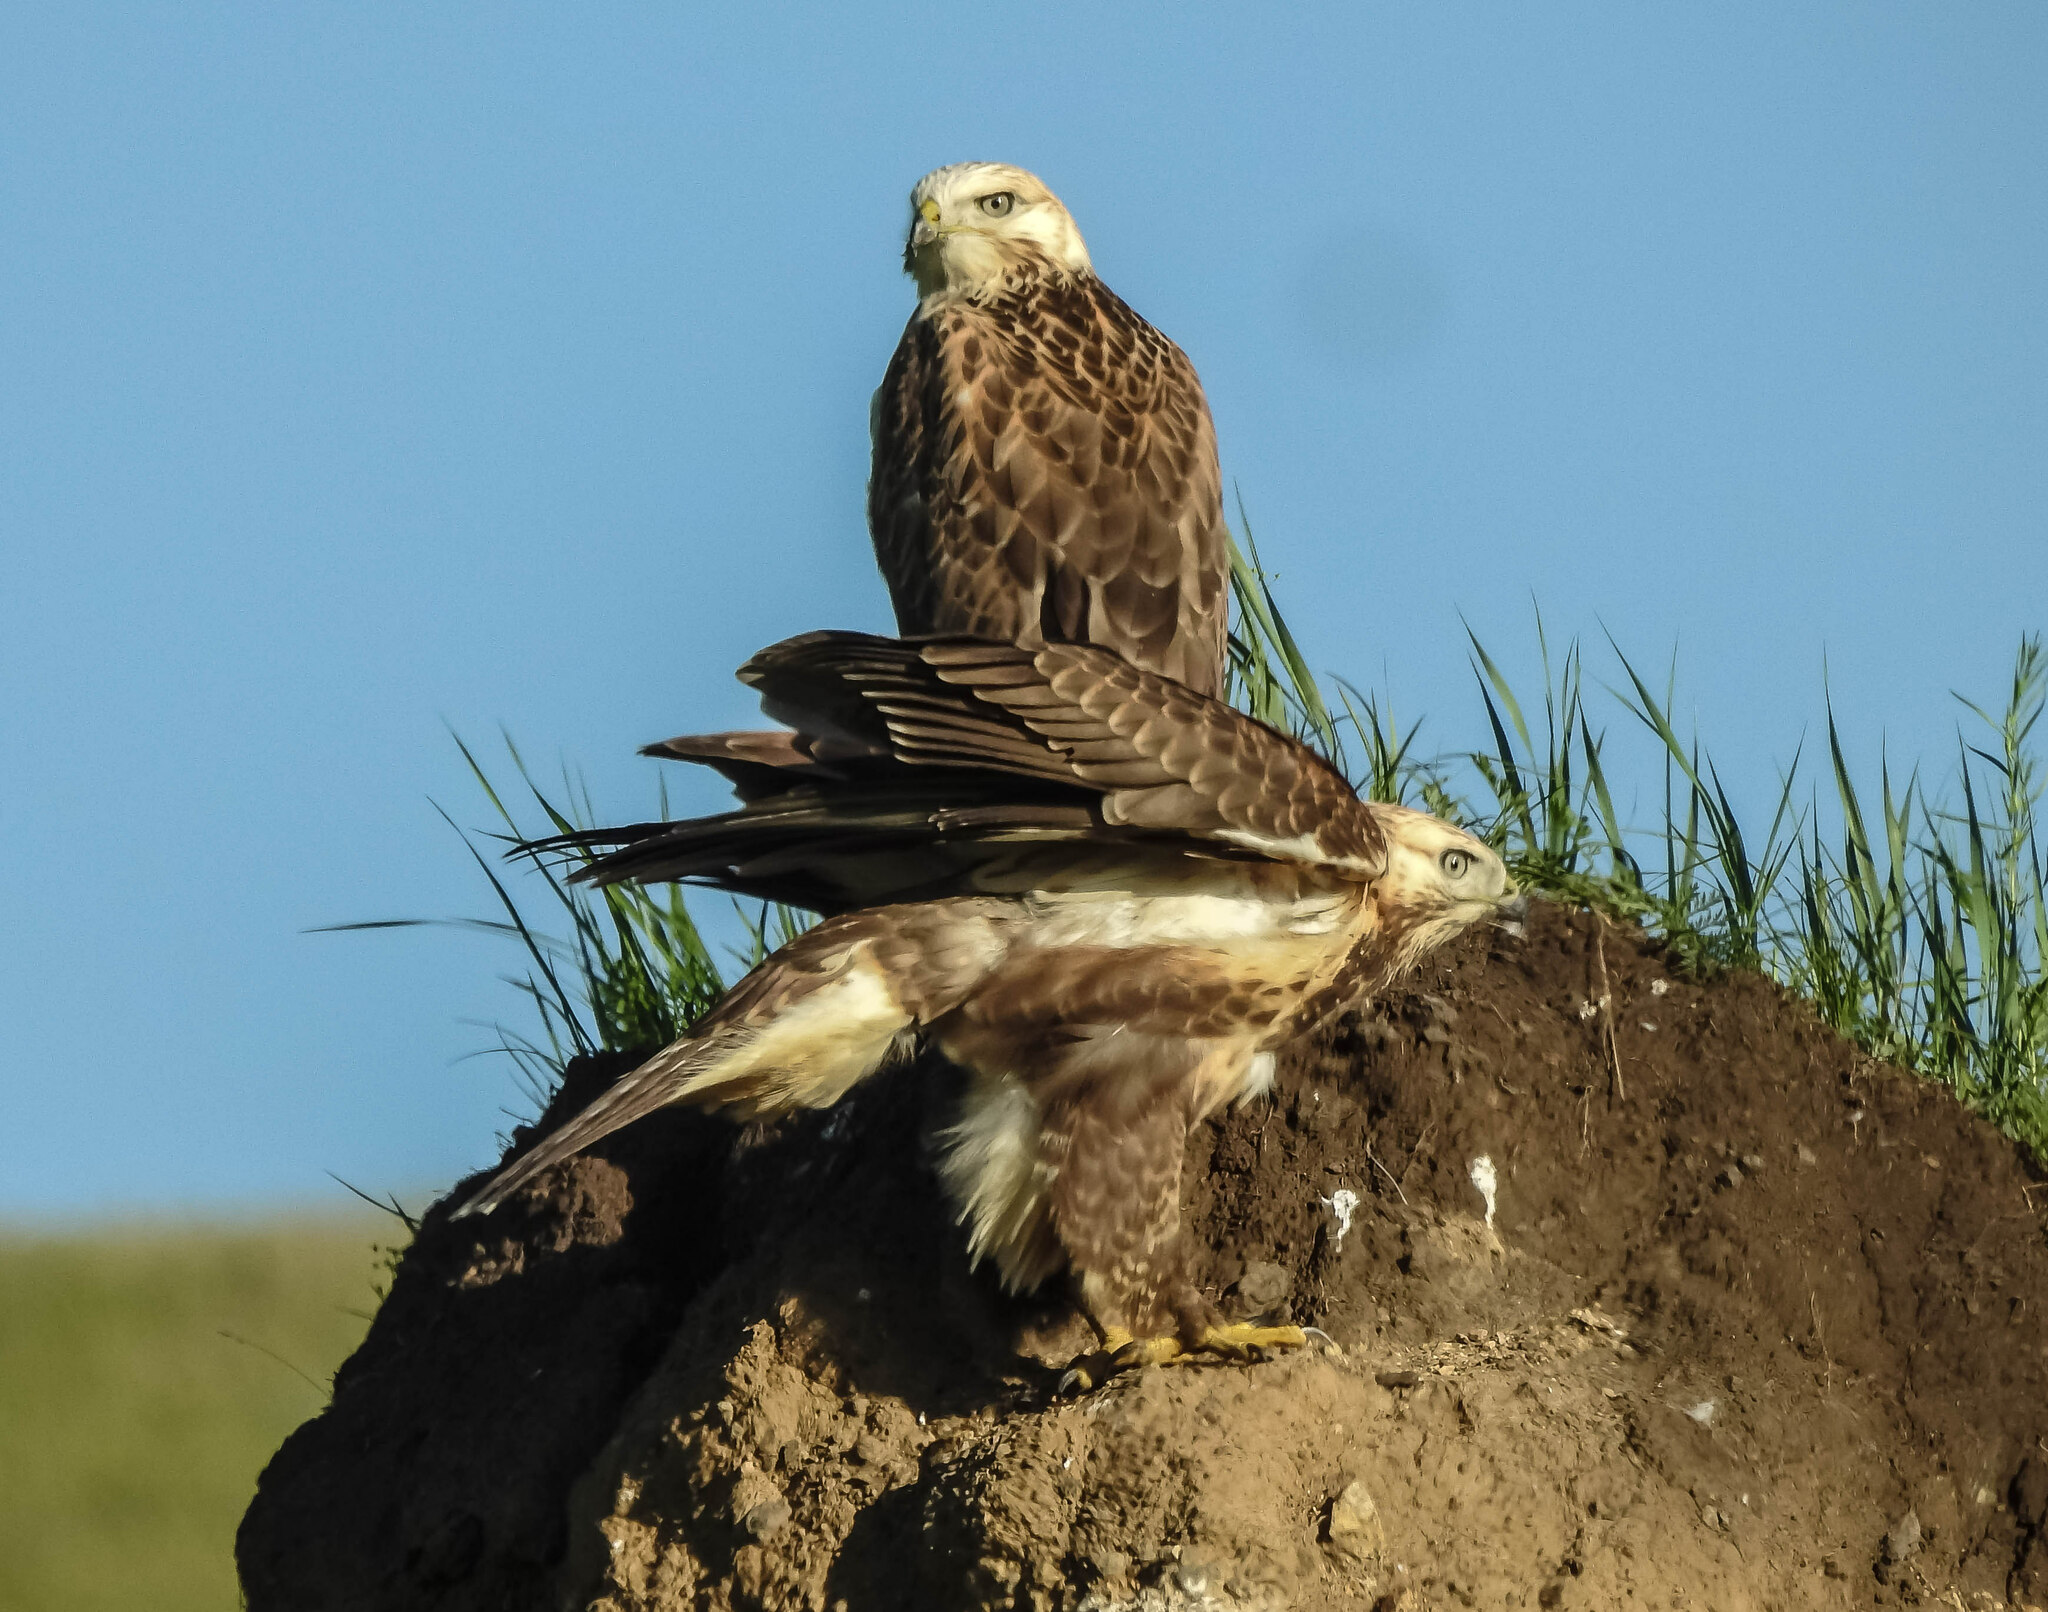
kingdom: Animalia
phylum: Chordata
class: Aves
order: Accipitriformes
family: Accipitridae
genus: Buteo
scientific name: Buteo hemilasius
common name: Upland buzzard
